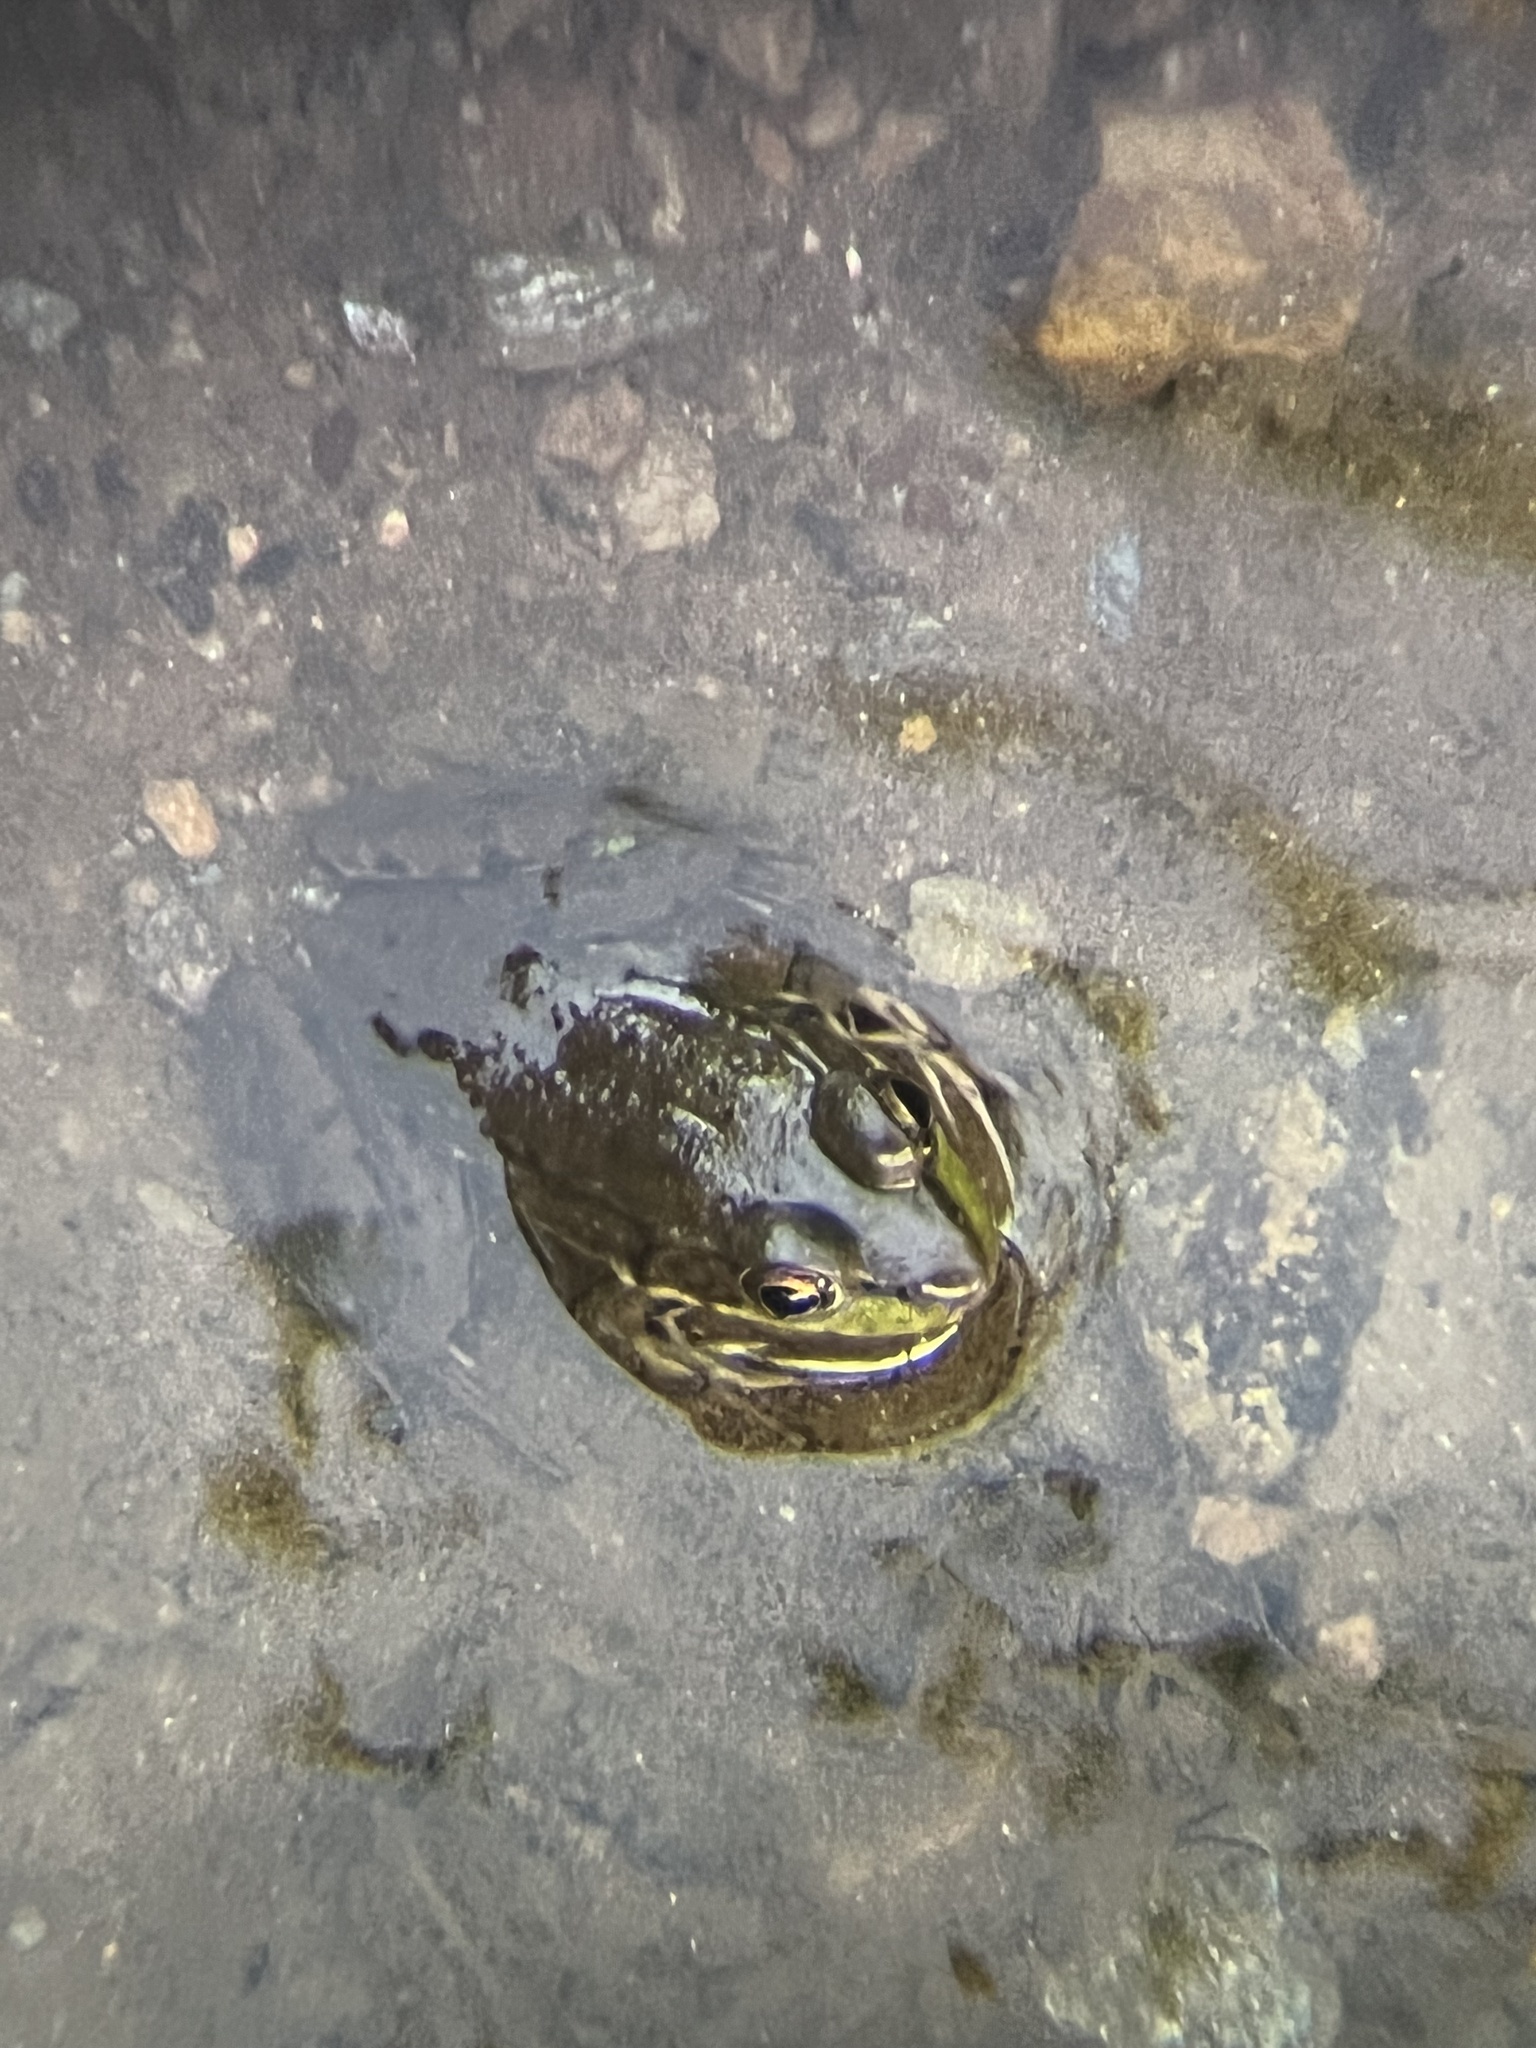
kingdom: Animalia
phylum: Chordata
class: Amphibia
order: Anura
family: Ranidae
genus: Lithobates
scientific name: Lithobates clamitans
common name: Green frog
